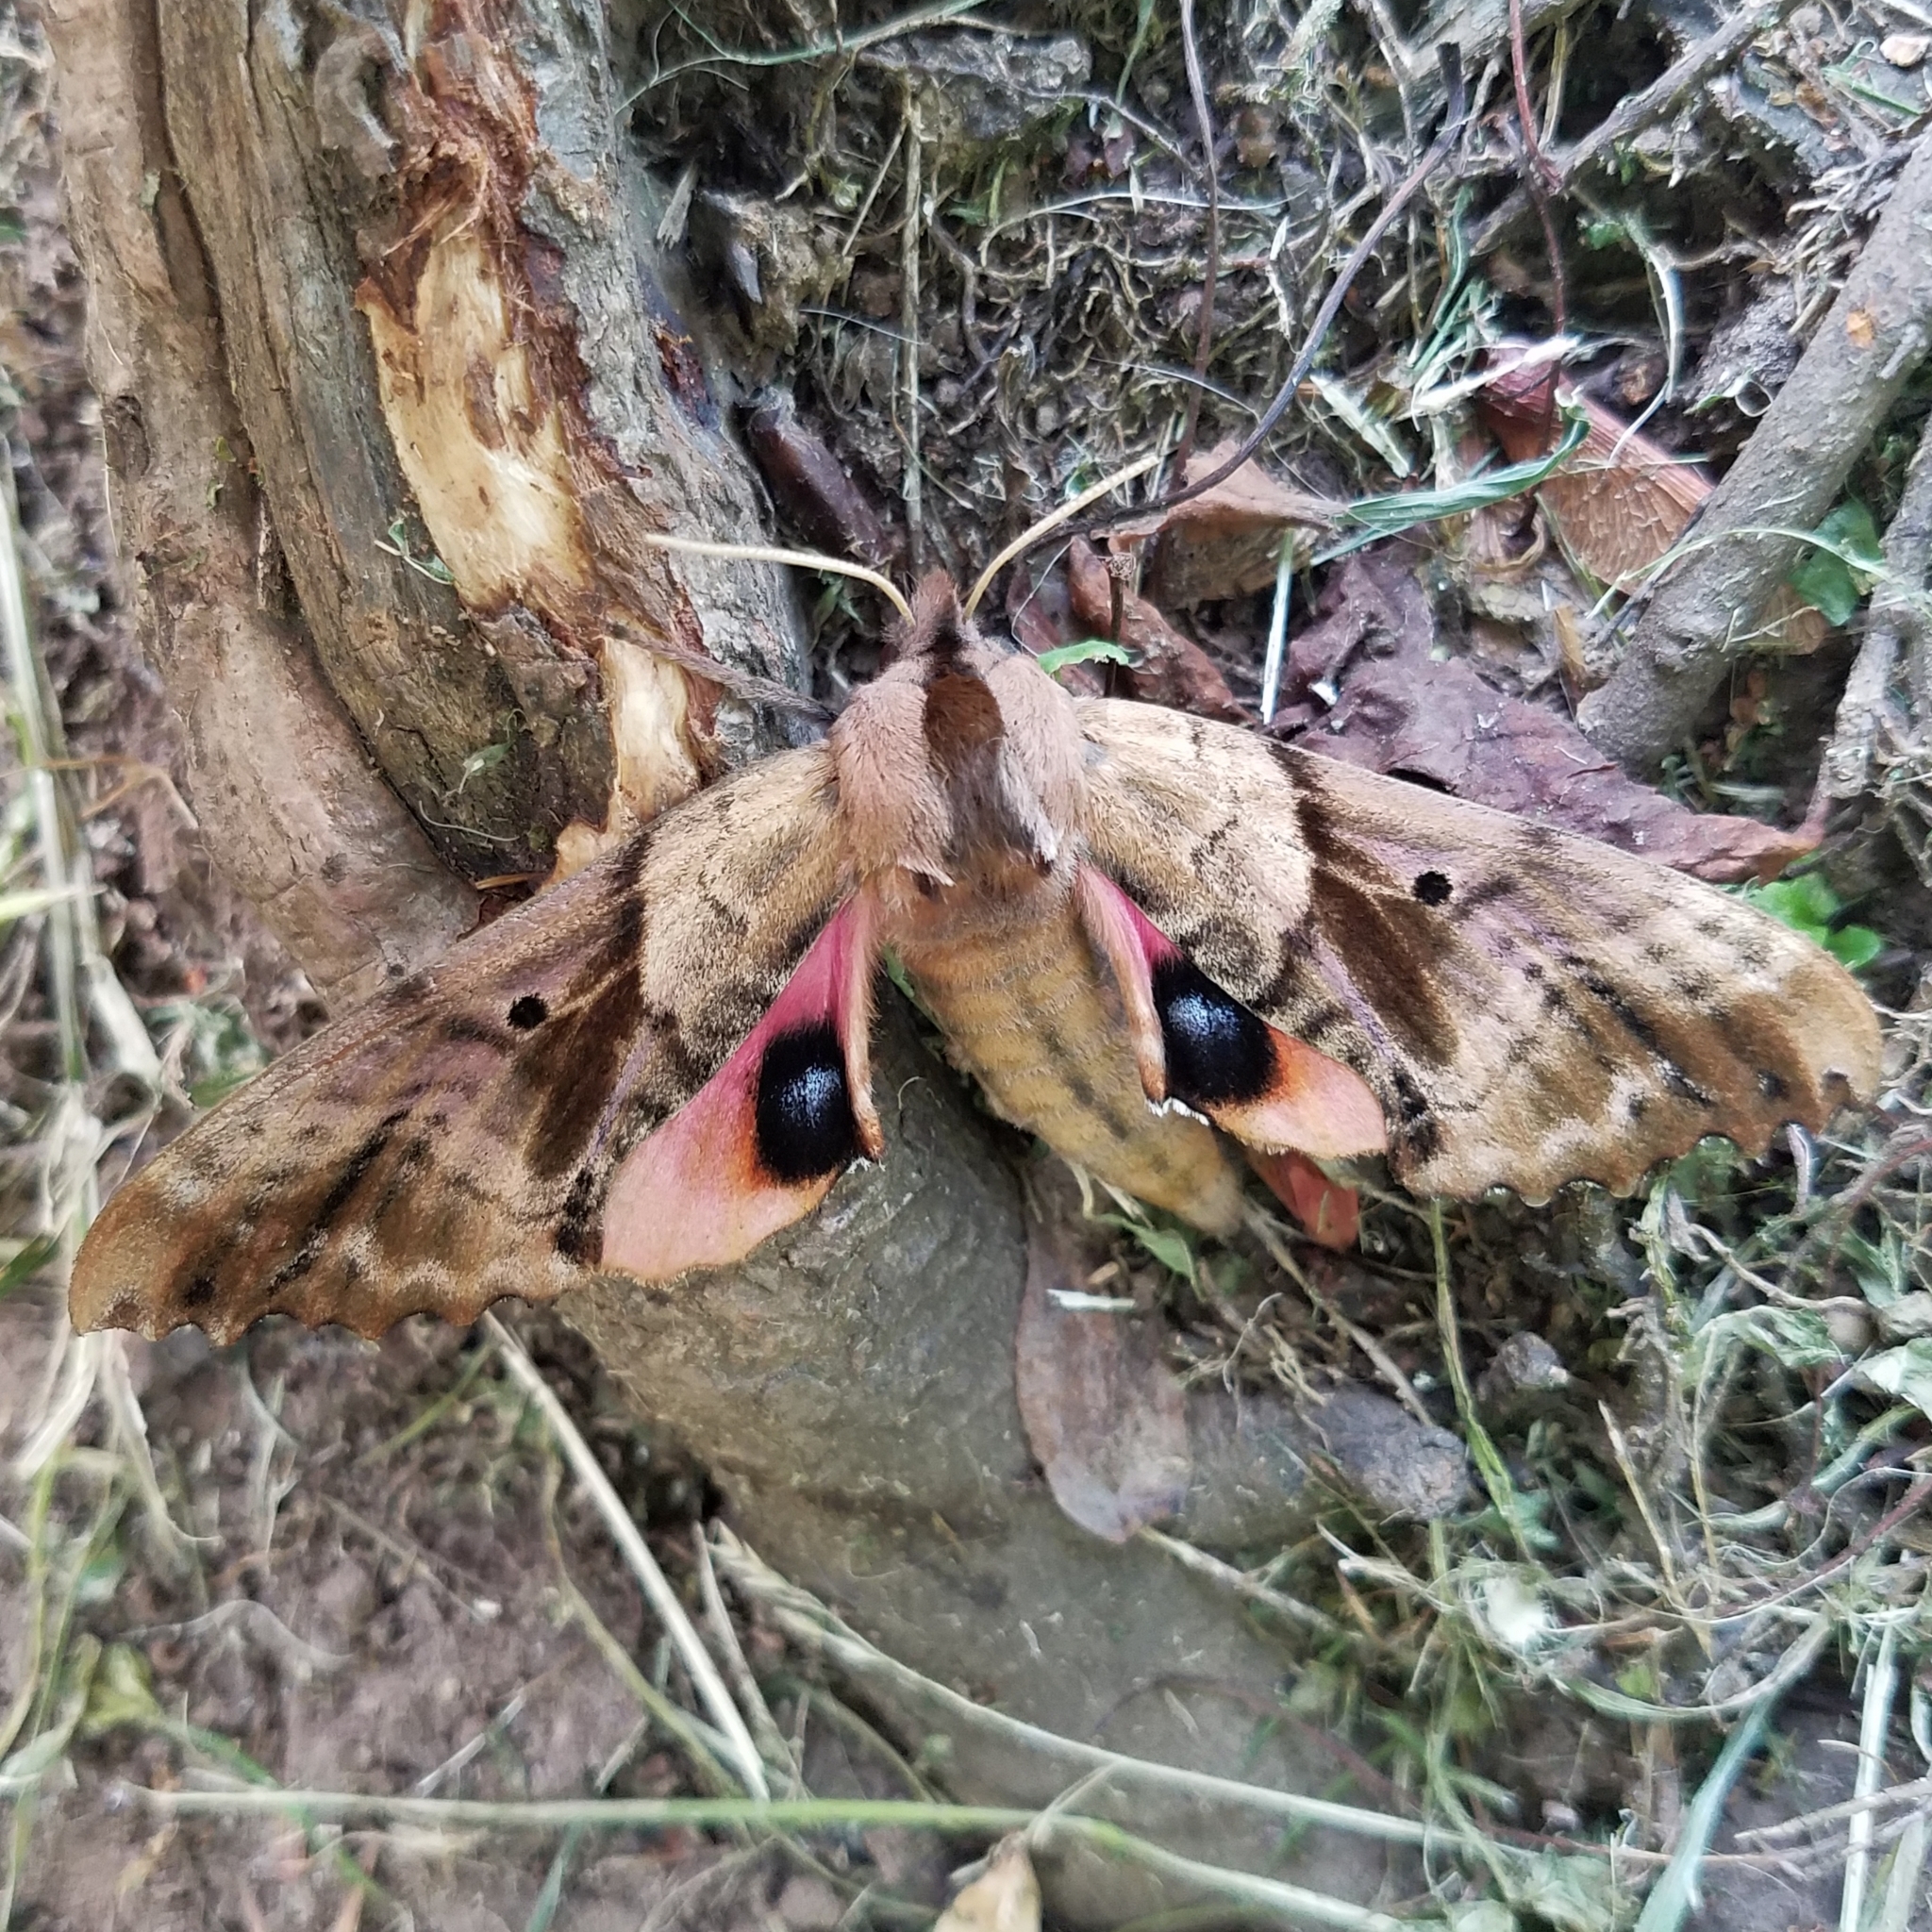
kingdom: Animalia
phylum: Arthropoda
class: Insecta
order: Lepidoptera
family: Sphingidae
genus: Paonias
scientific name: Paonias excaecata
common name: Blind-eyed sphinx
